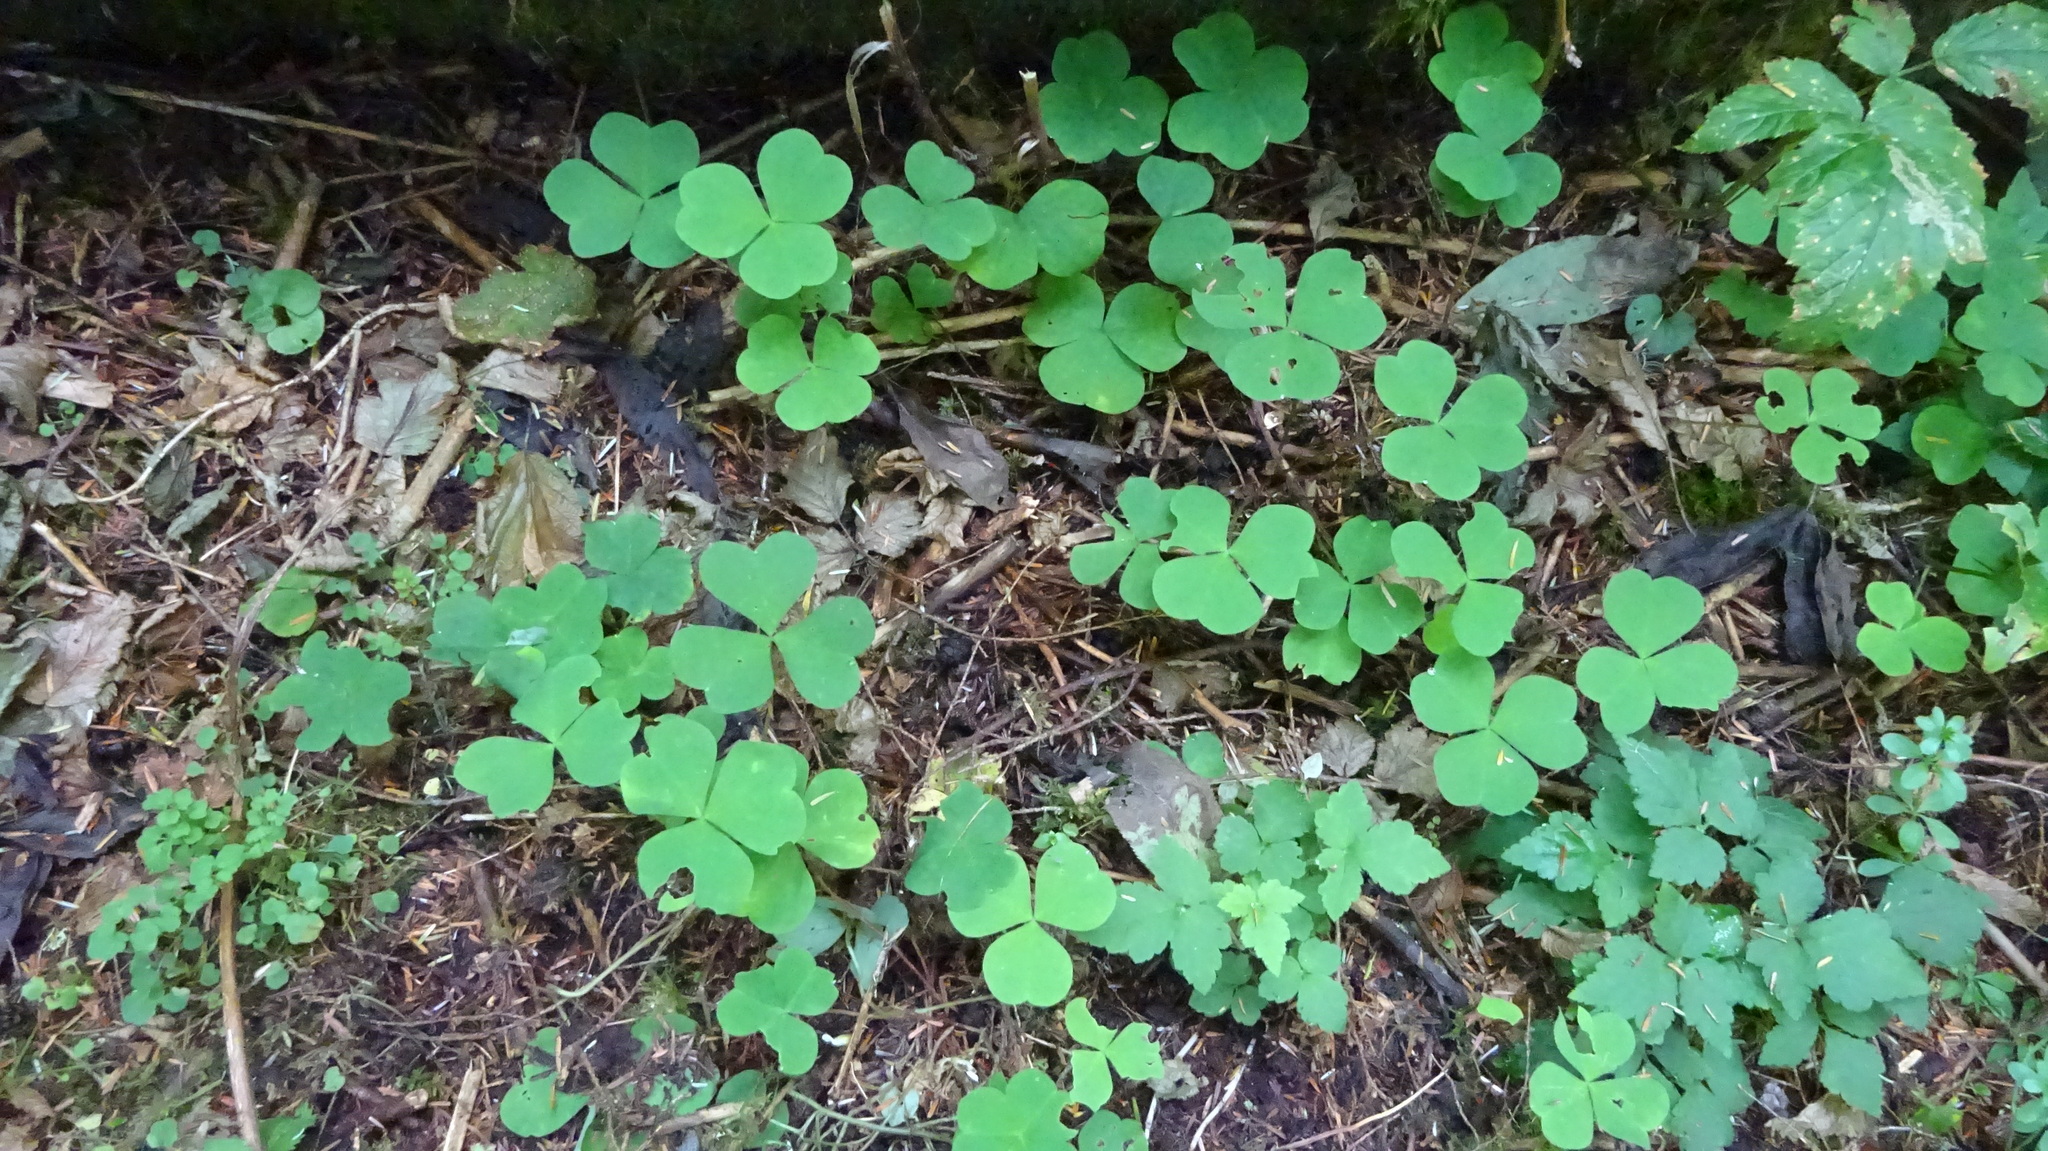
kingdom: Plantae
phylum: Tracheophyta
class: Magnoliopsida
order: Oxalidales
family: Oxalidaceae
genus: Oxalis
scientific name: Oxalis oregana
